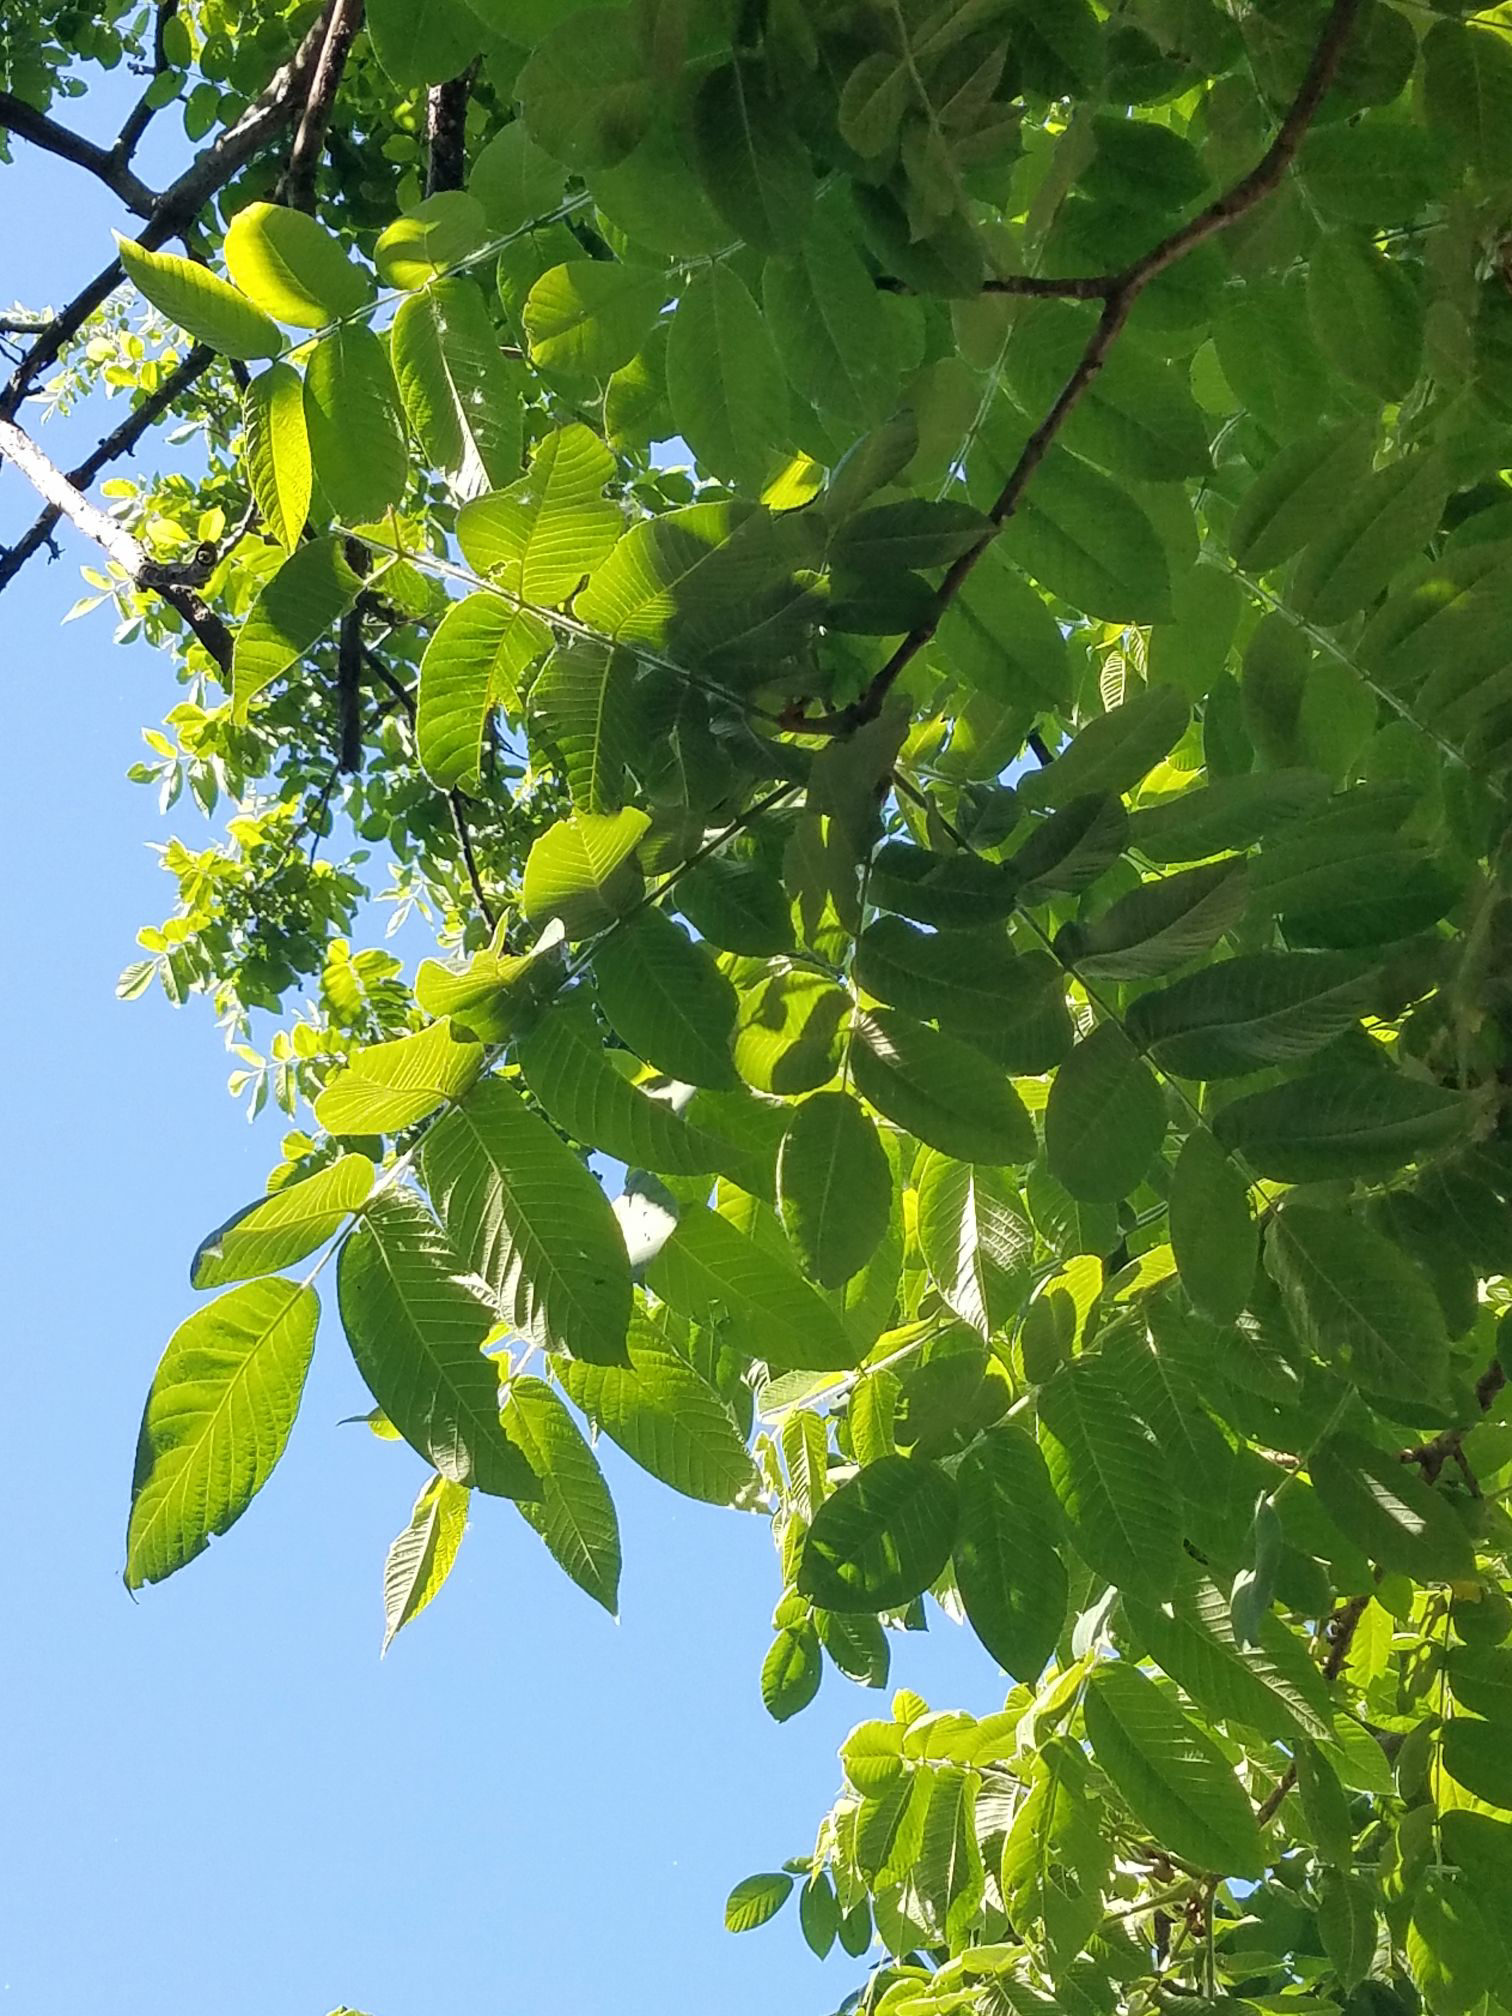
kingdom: Plantae
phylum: Tracheophyta
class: Magnoliopsida
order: Fagales
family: Juglandaceae
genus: Juglans
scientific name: Juglans cinerea
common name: Butternut
